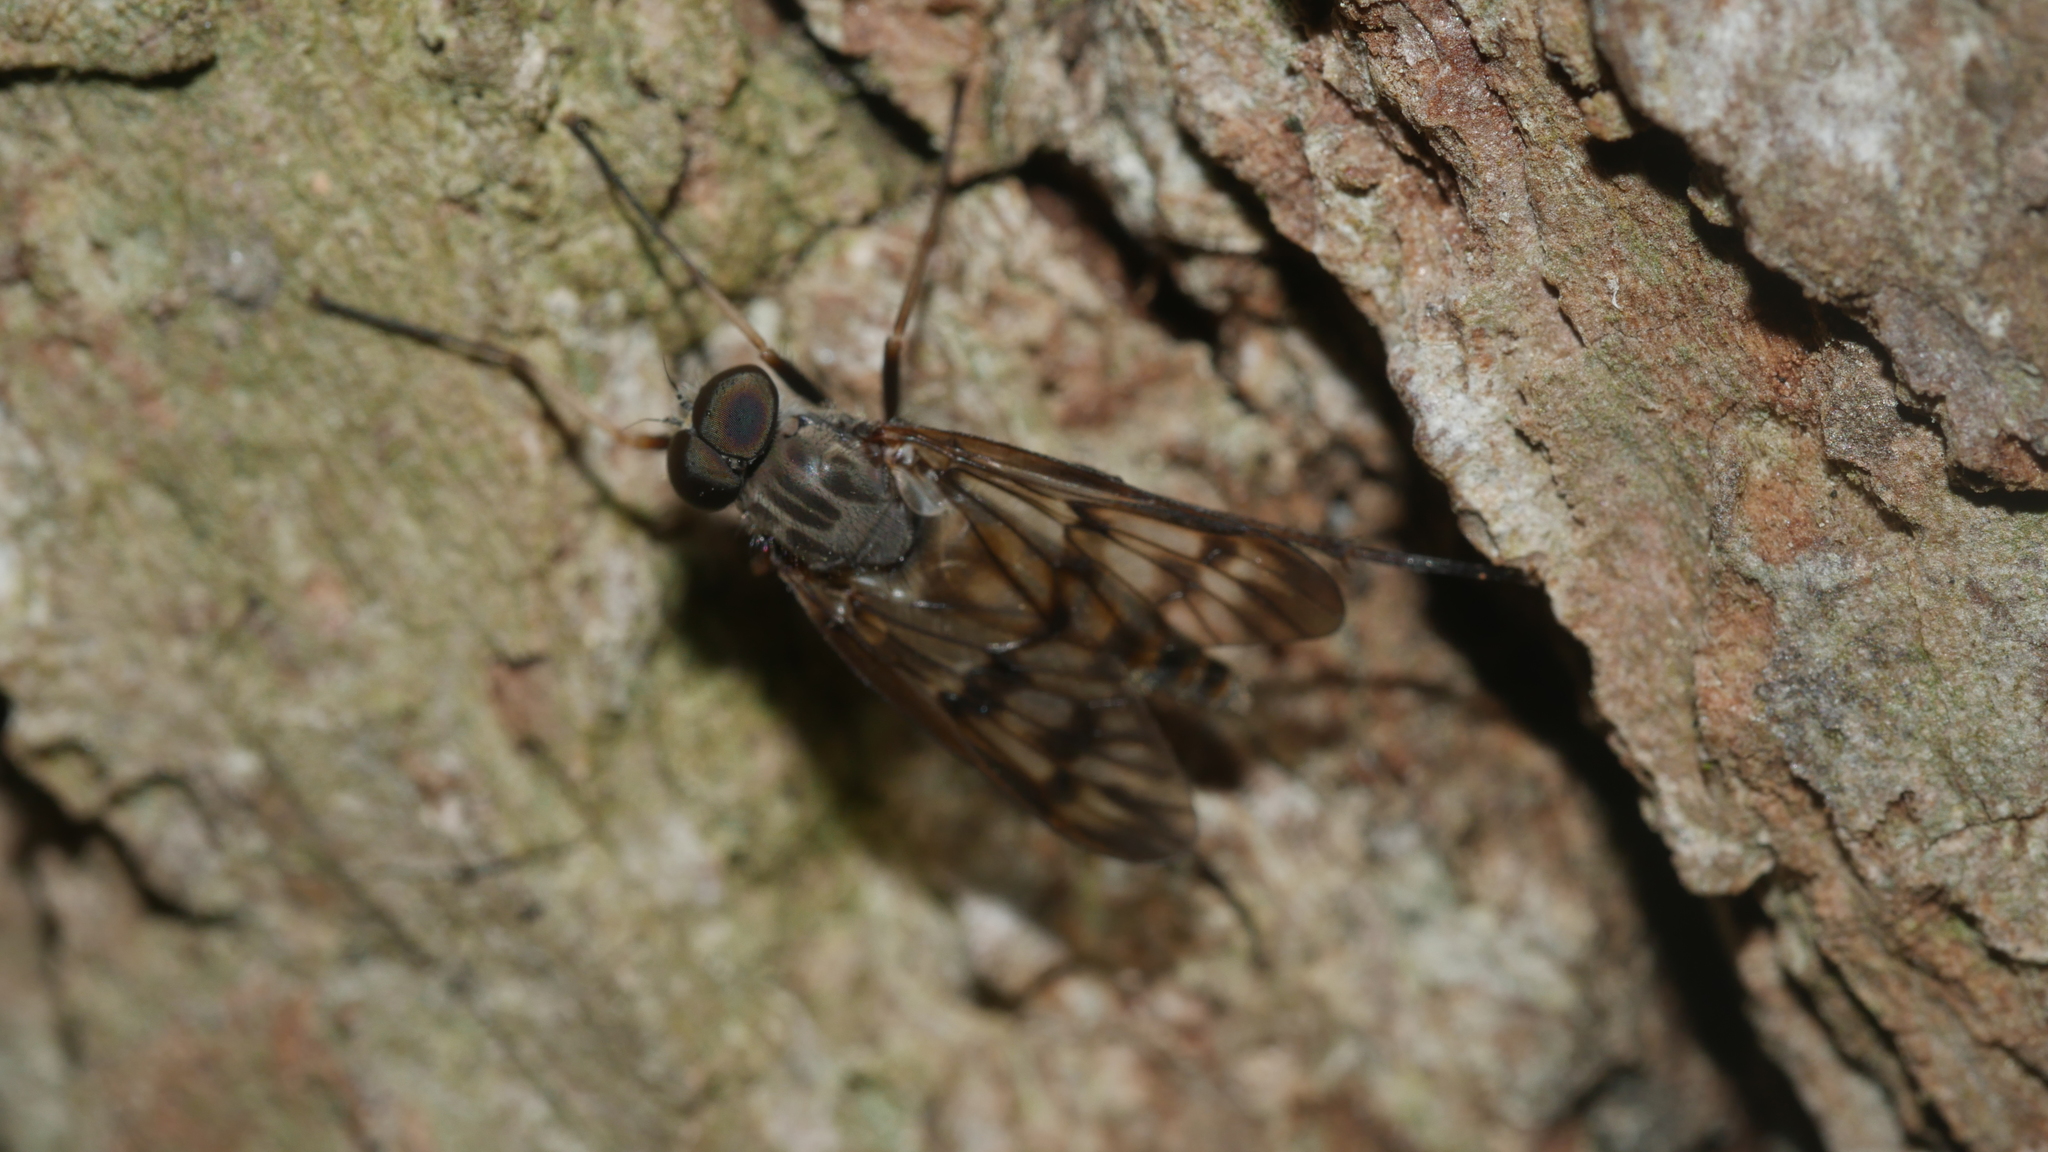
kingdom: Animalia
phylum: Arthropoda
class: Insecta
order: Diptera
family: Rhagionidae
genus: Rhagio
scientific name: Rhagio mystaceus
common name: Common snipe fly
